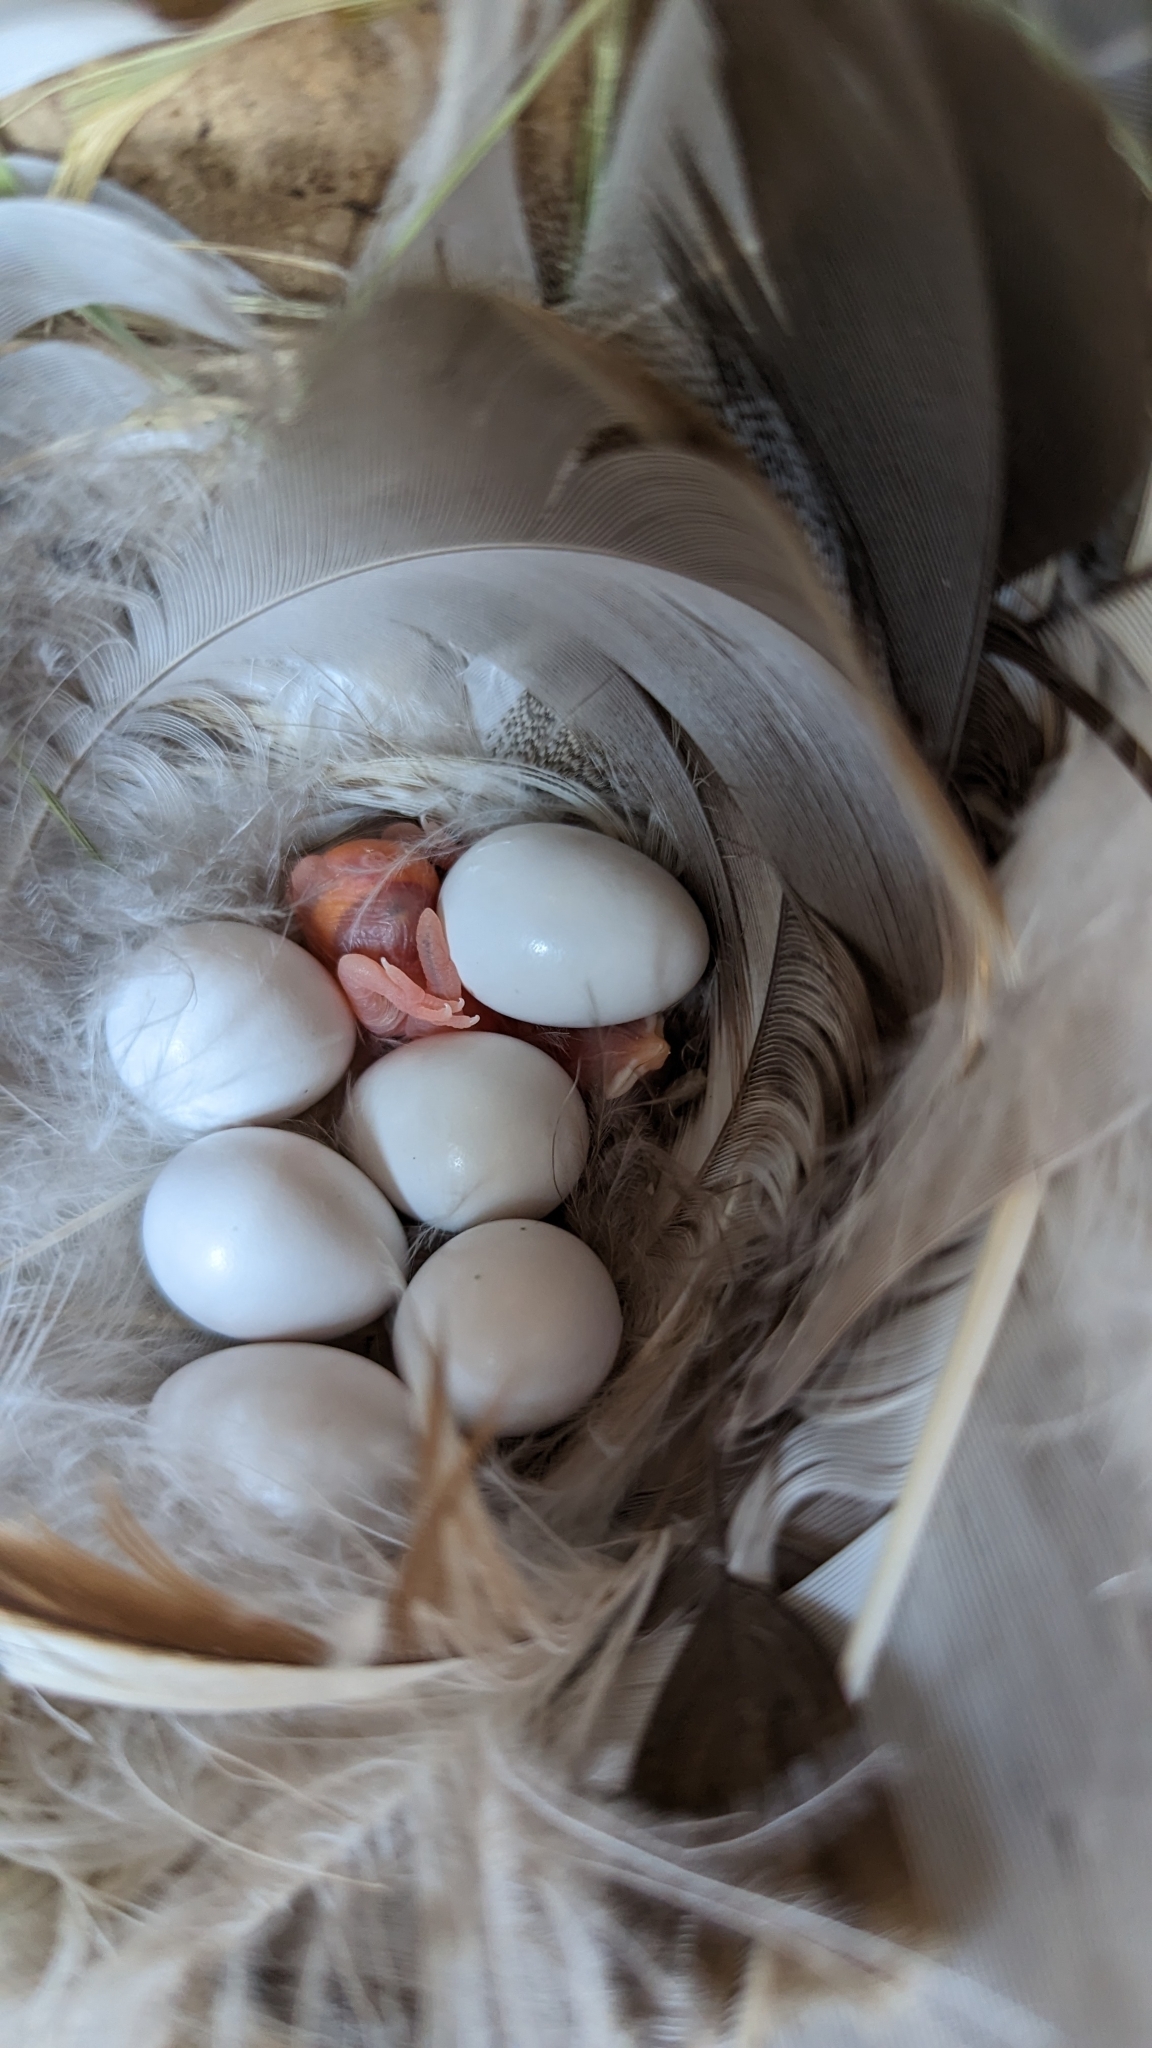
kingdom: Animalia
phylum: Chordata
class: Aves
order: Passeriformes
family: Hirundinidae
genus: Tachycineta
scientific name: Tachycineta bicolor
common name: Tree swallow
